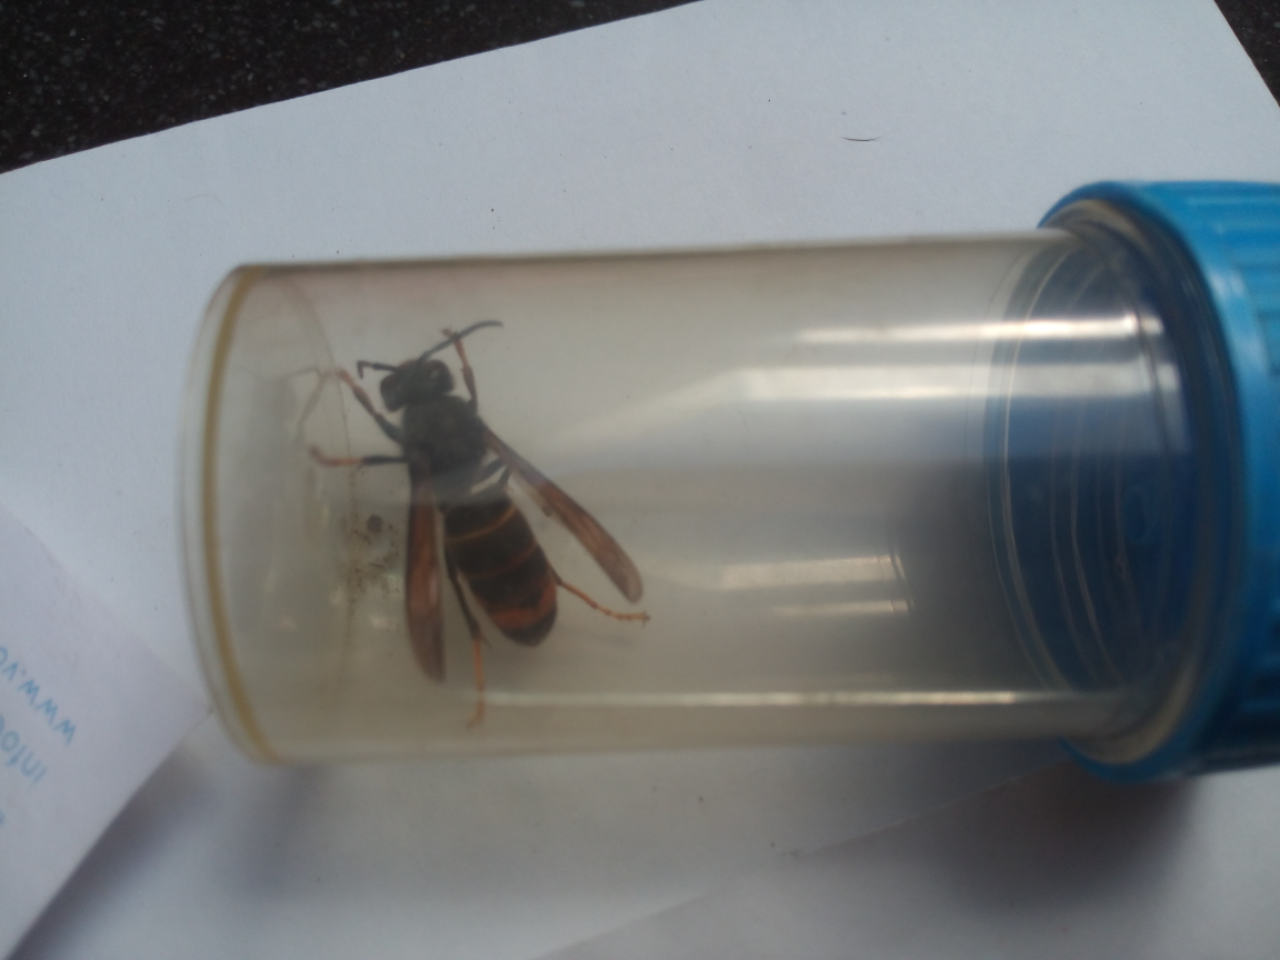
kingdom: Animalia
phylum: Arthropoda
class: Insecta
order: Hymenoptera
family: Vespidae
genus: Vespa
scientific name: Vespa velutina
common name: Asian hornet
